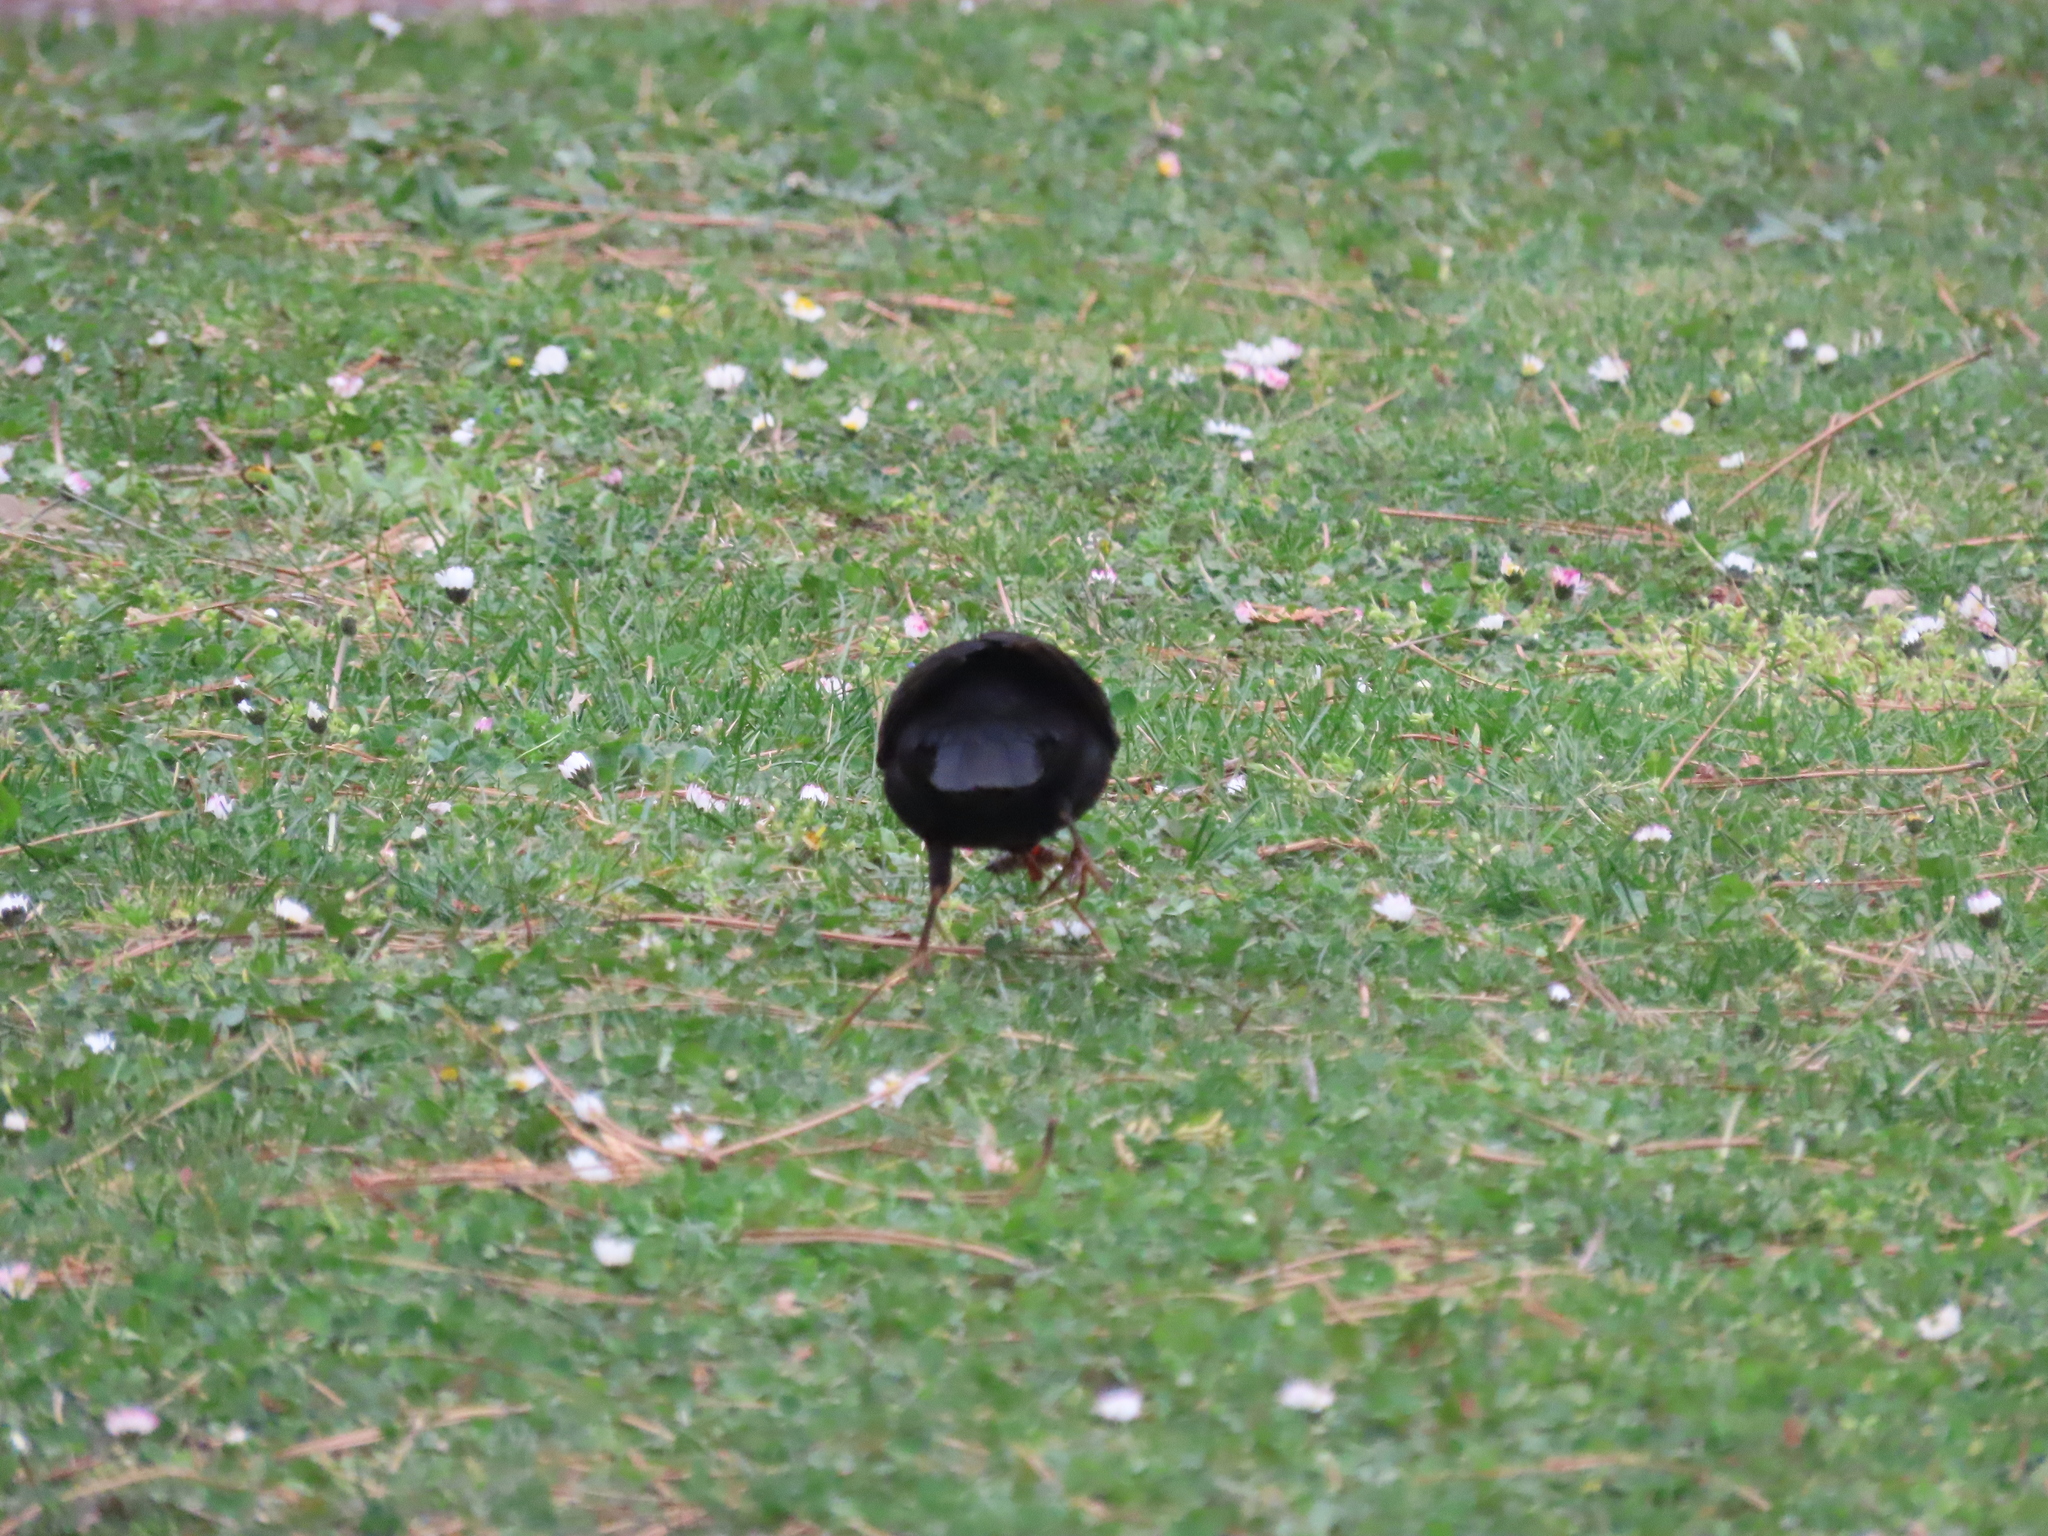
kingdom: Animalia
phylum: Chordata
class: Aves
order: Passeriformes
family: Turdidae
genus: Turdus
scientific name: Turdus merula
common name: Common blackbird
